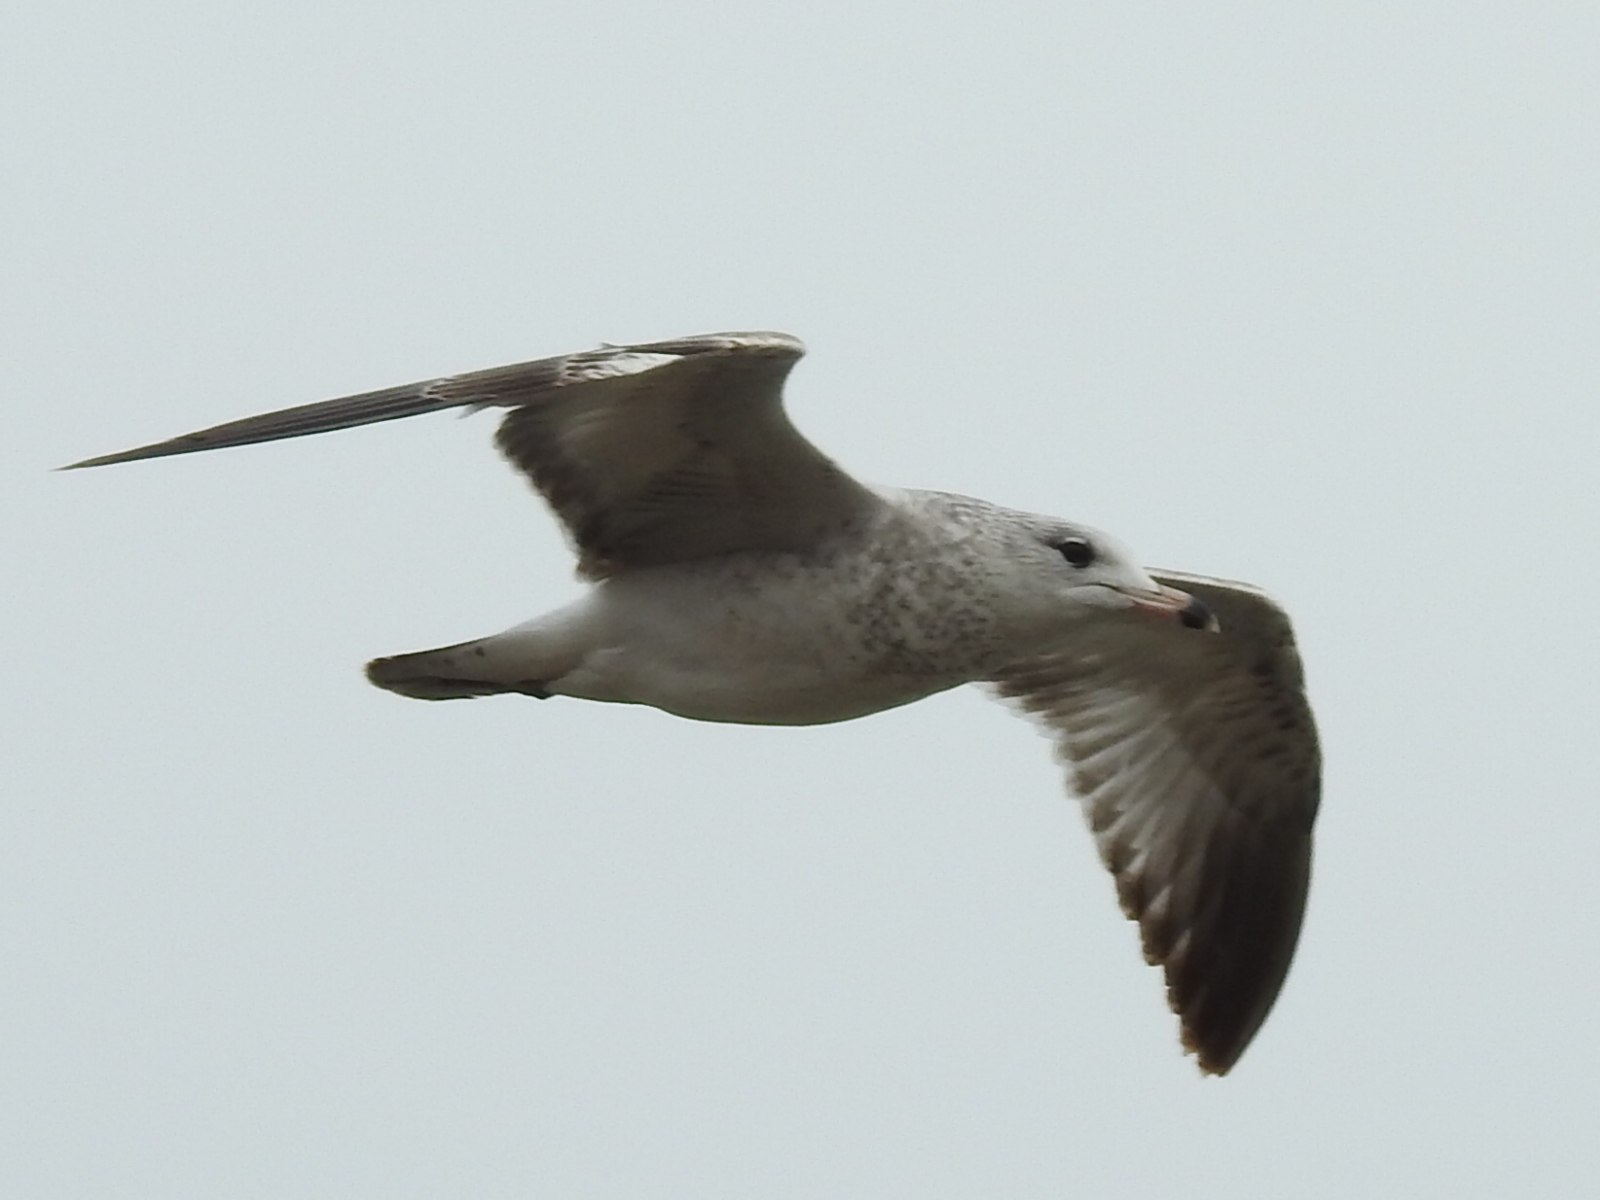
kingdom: Animalia
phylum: Chordata
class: Aves
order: Charadriiformes
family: Laridae
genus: Larus
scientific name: Larus delawarensis
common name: Ring-billed gull
